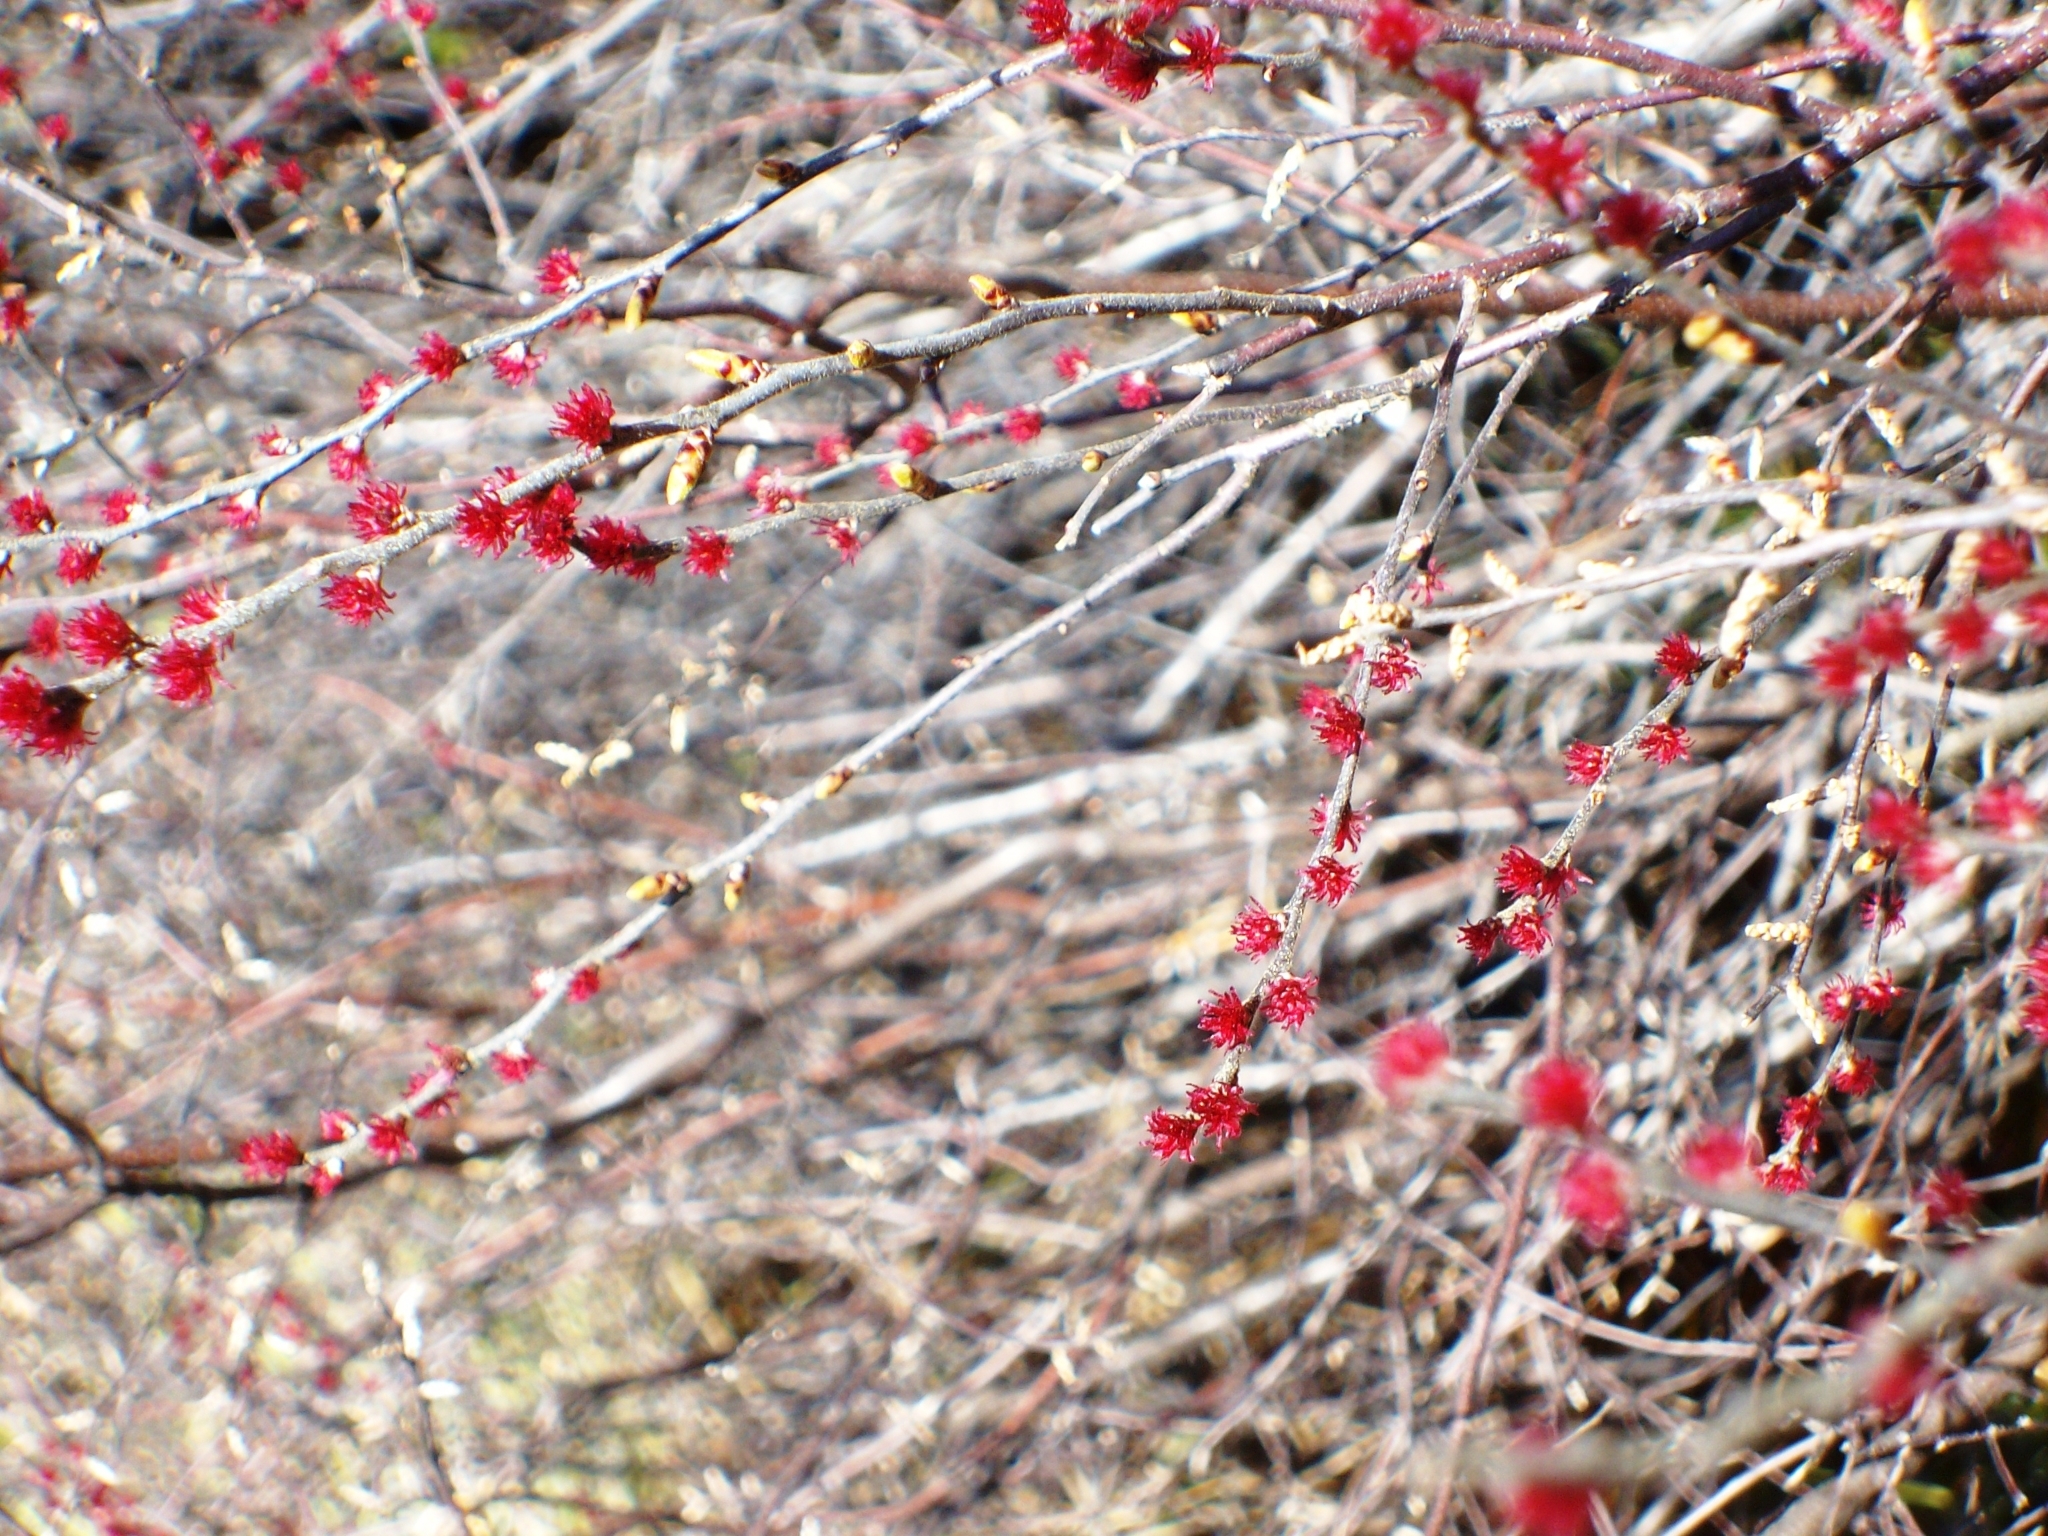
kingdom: Plantae
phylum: Tracheophyta
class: Magnoliopsida
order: Sapindales
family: Sapindaceae
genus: Acer
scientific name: Acer rubrum
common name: Red maple
